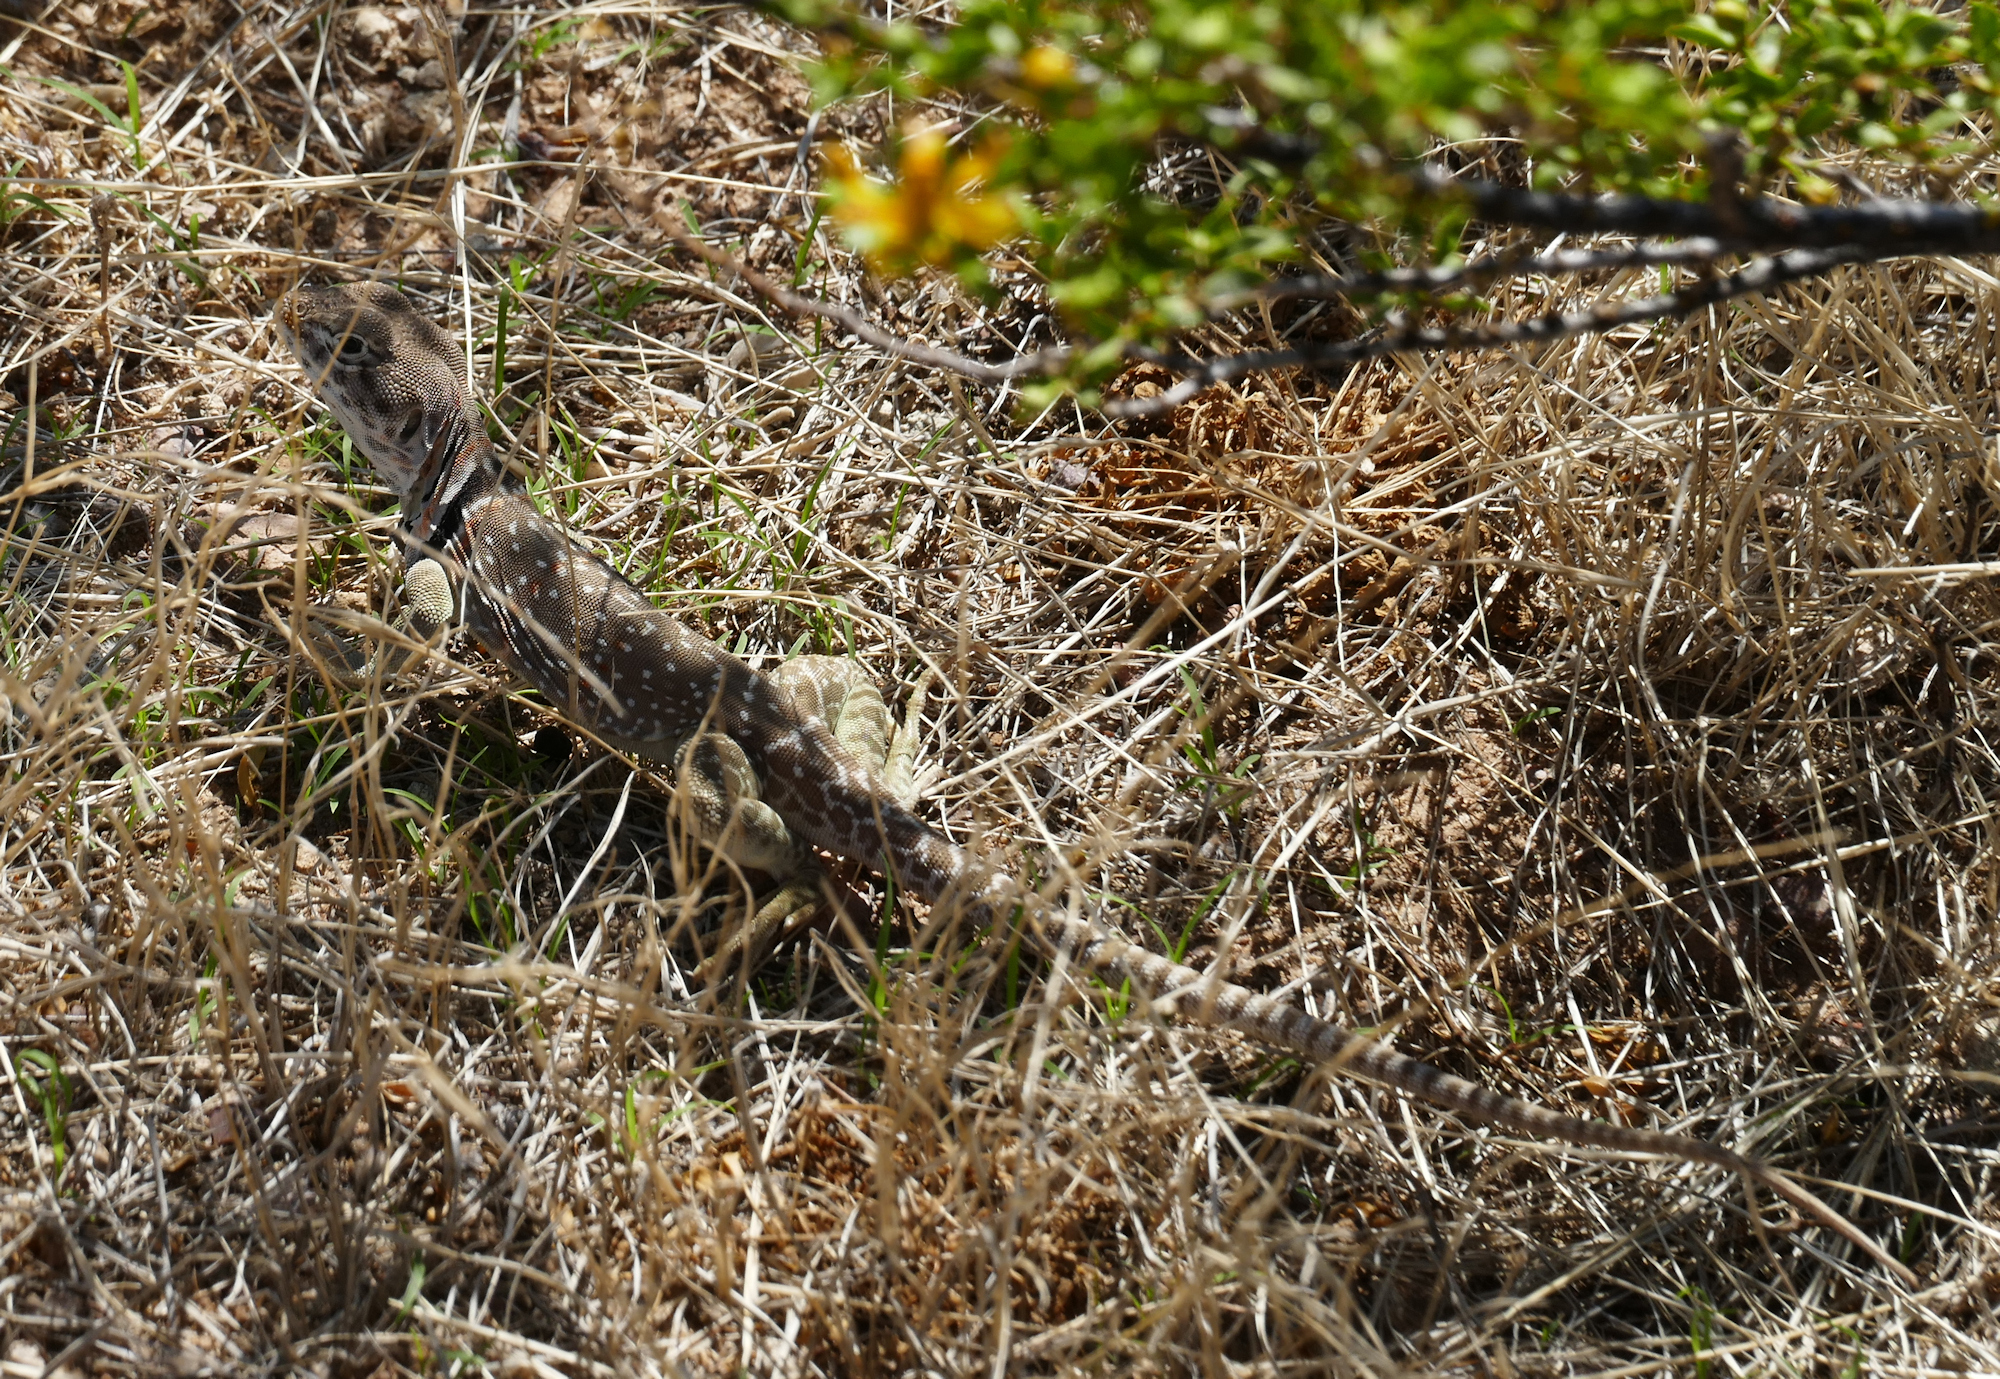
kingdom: Animalia
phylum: Chordata
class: Squamata
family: Crotaphytidae
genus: Crotaphytus
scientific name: Crotaphytus collaris
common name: Collared lizard
